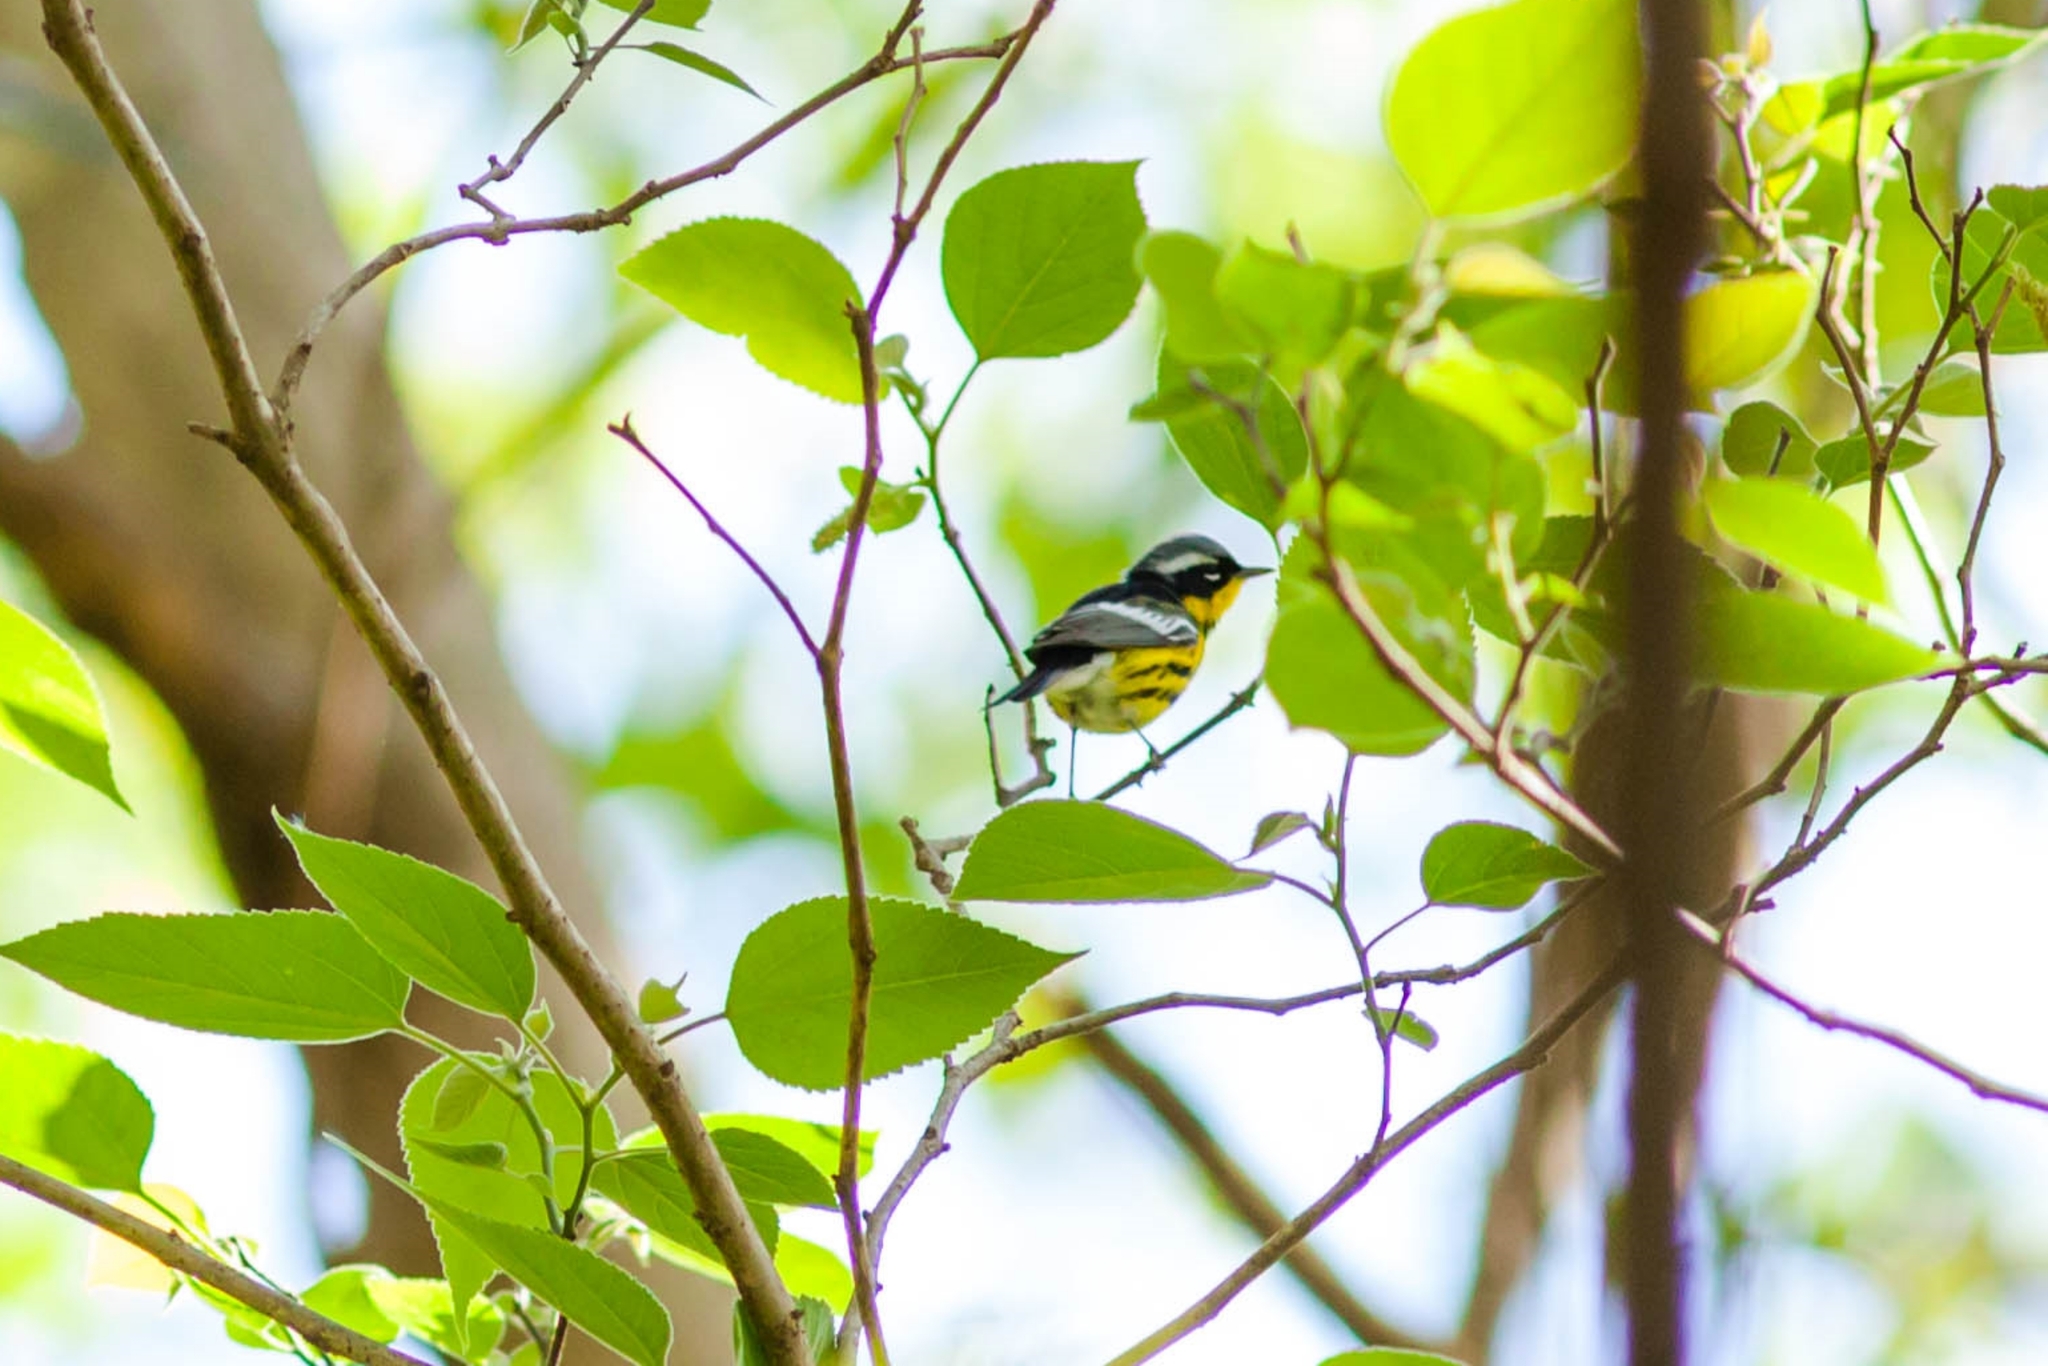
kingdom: Animalia
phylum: Chordata
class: Aves
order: Passeriformes
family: Parulidae
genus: Setophaga
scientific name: Setophaga magnolia
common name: Magnolia warbler
